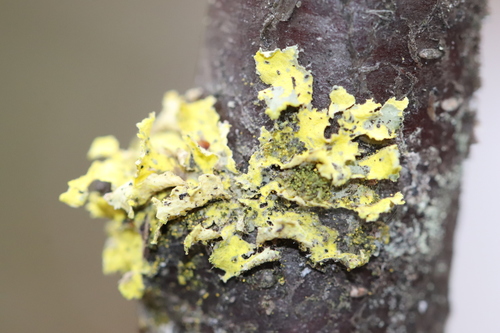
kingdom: Fungi
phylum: Ascomycota
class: Lecanoromycetes
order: Lecanorales
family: Parmeliaceae
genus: Vulpicida
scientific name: Vulpicida pinastri
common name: Powdered sunshine lichen
